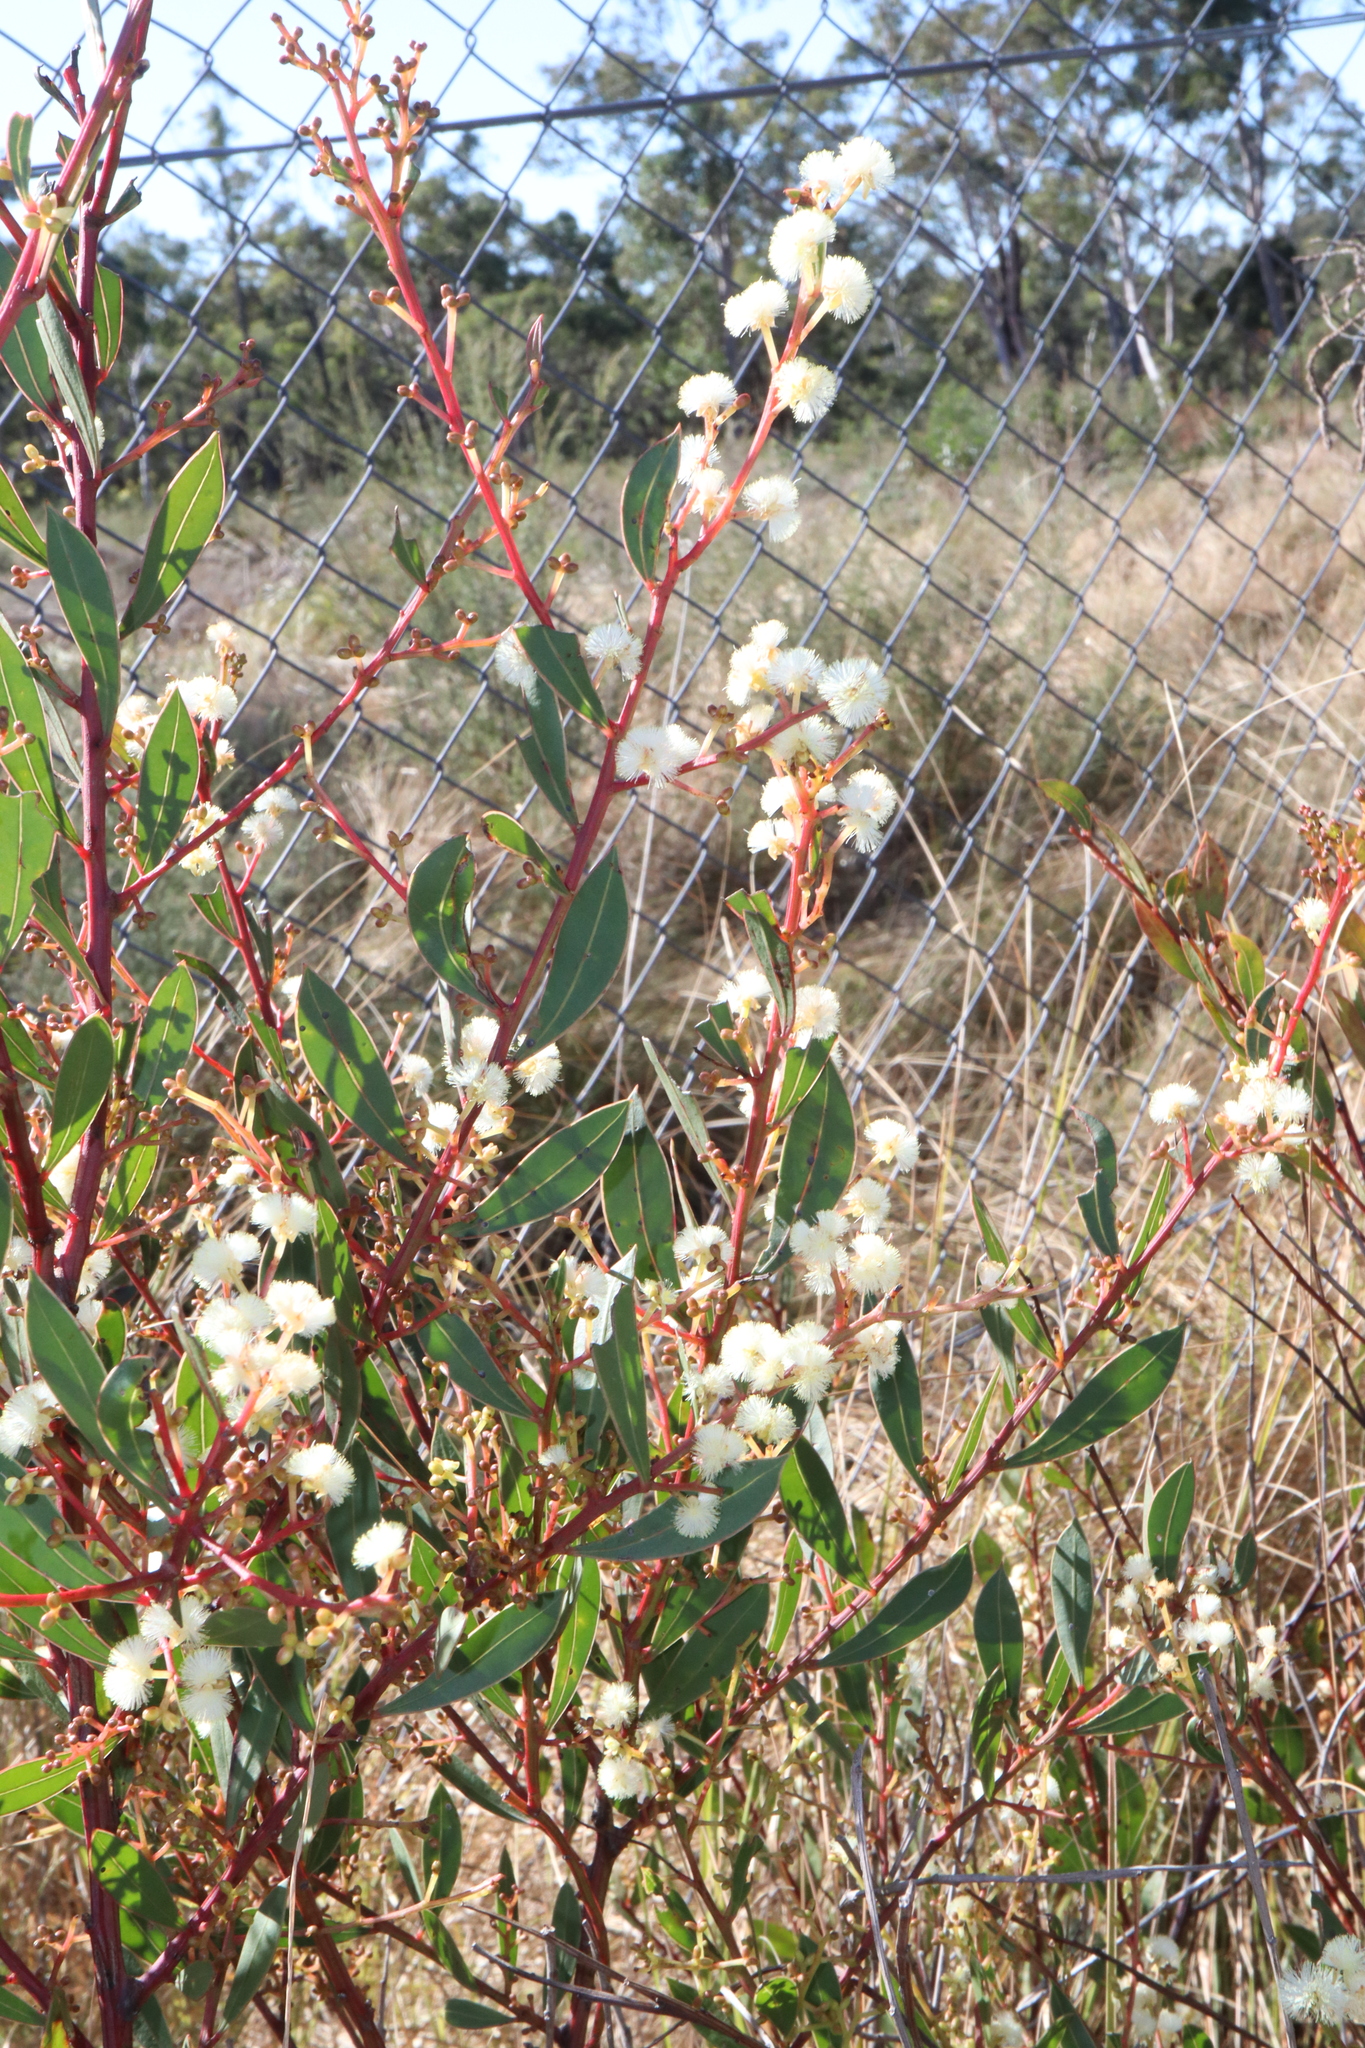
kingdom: Plantae
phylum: Tracheophyta
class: Magnoliopsida
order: Fabales
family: Fabaceae
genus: Acacia
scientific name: Acacia myrtifolia
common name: Myrtle wattle
